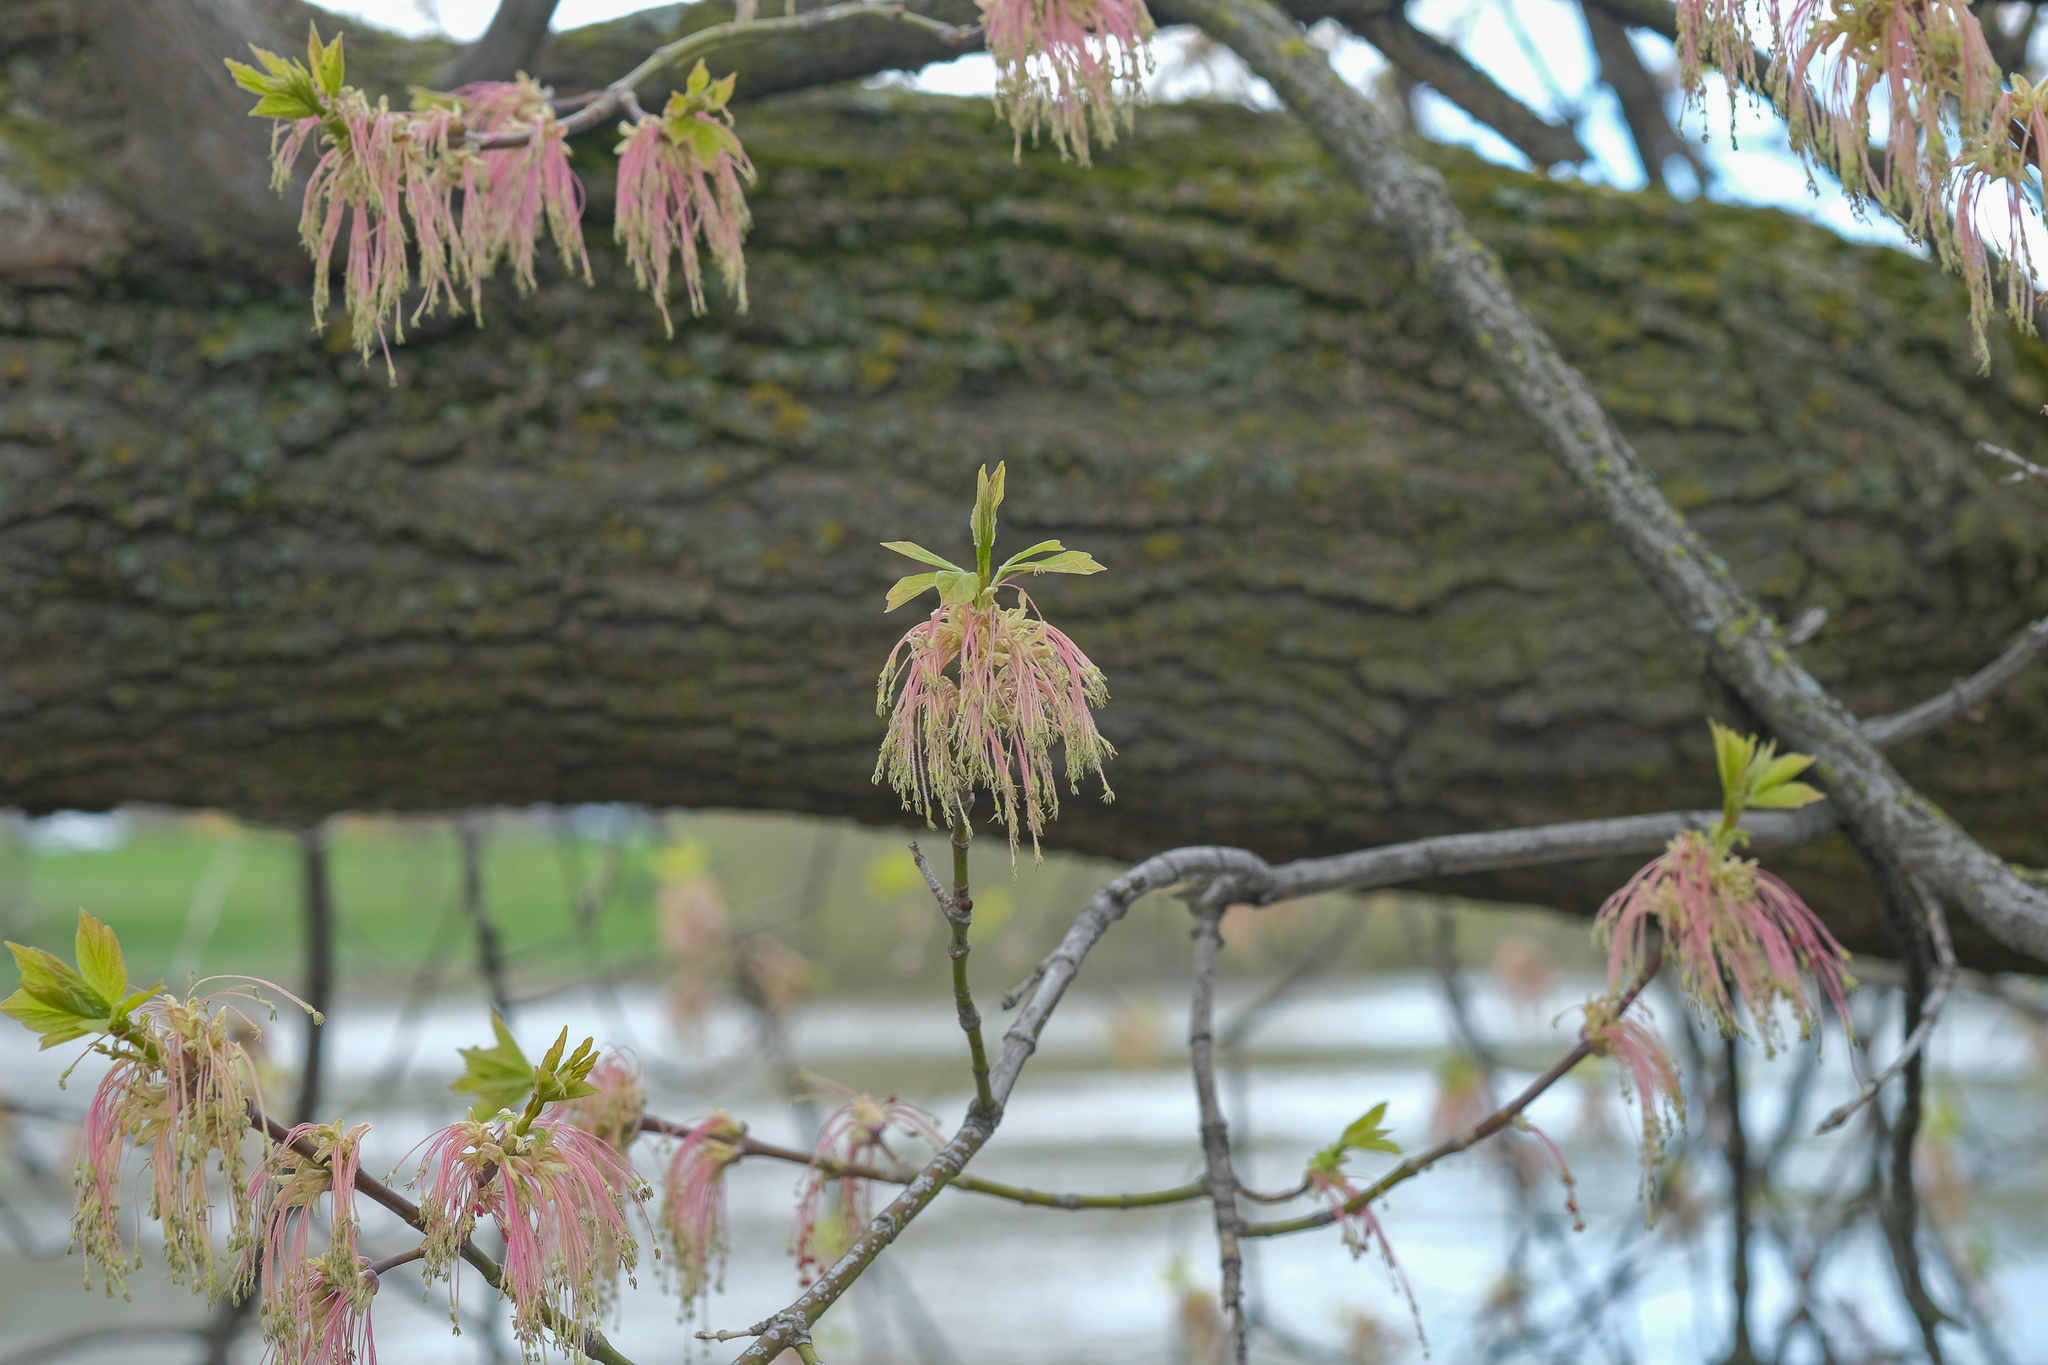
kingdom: Plantae
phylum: Tracheophyta
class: Magnoliopsida
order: Sapindales
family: Sapindaceae
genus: Acer
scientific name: Acer negundo
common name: Ashleaf maple
